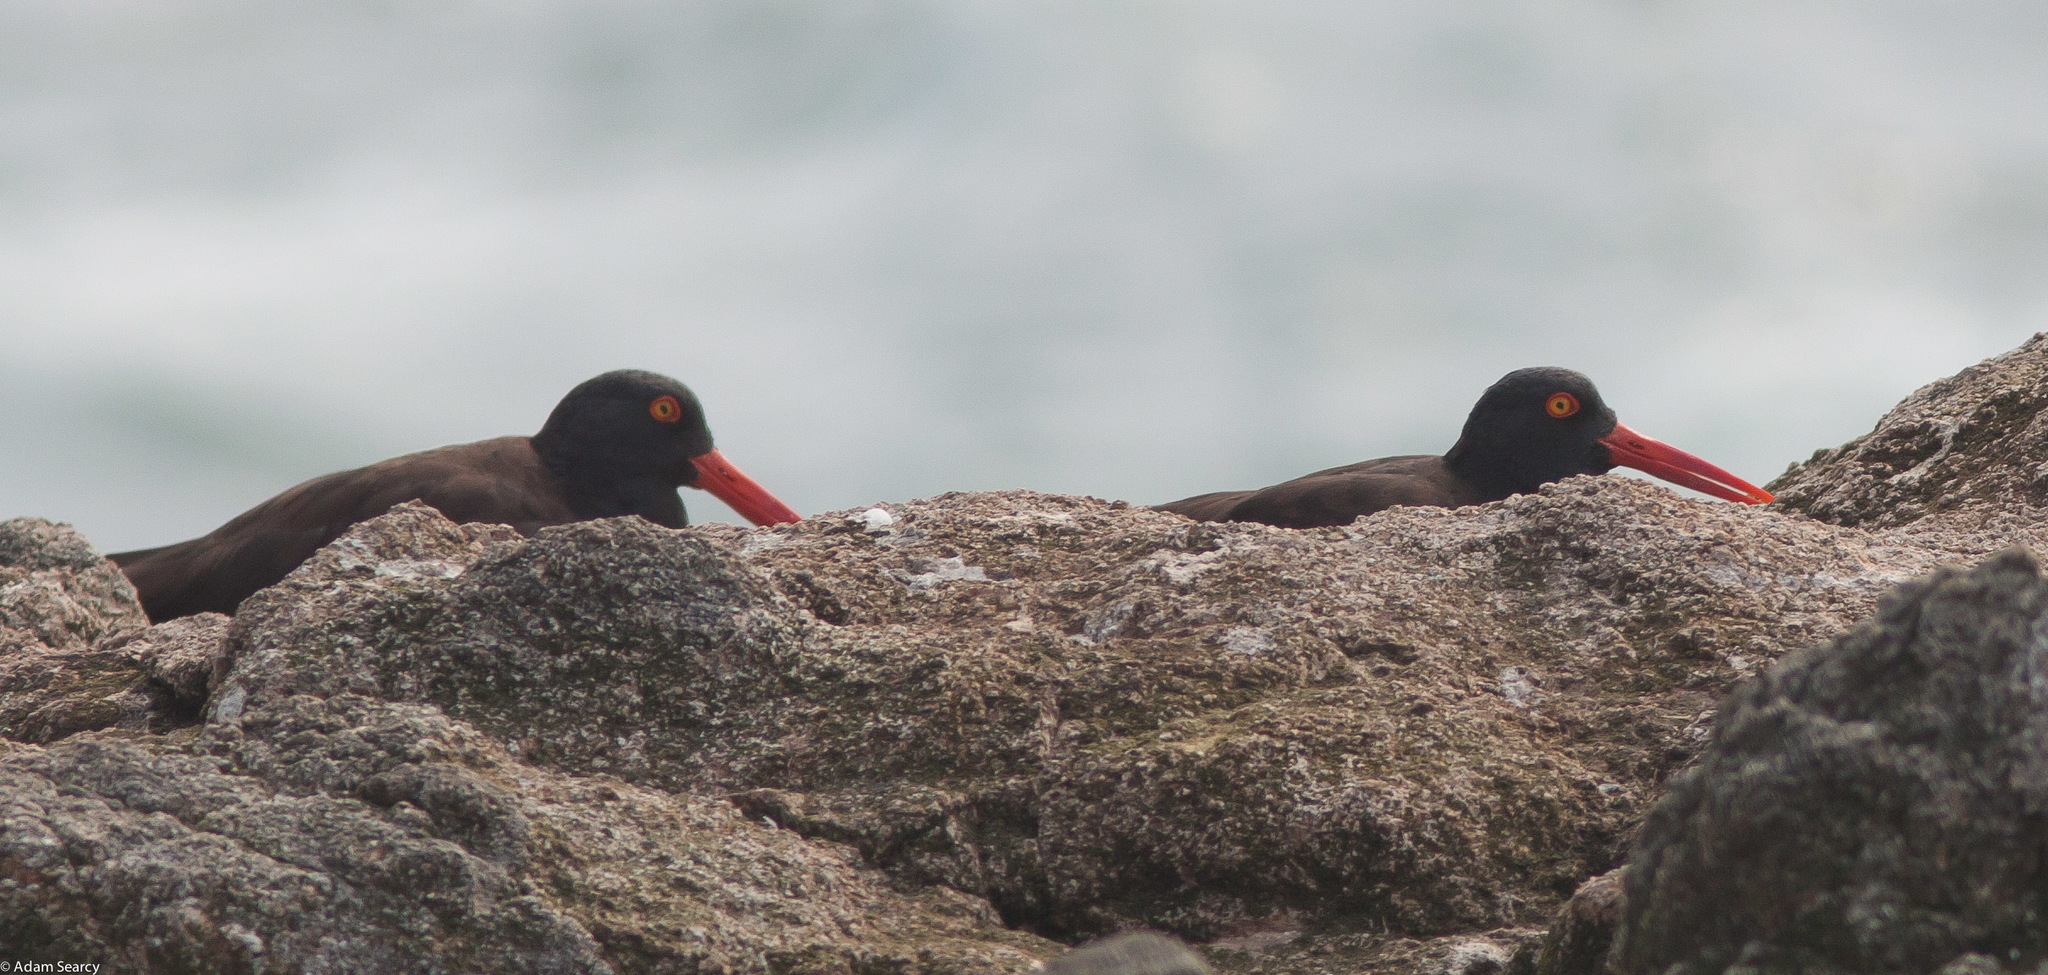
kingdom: Animalia
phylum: Chordata
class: Aves
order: Charadriiformes
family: Haematopodidae
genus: Haematopus
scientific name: Haematopus bachmani
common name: Black oystercatcher
